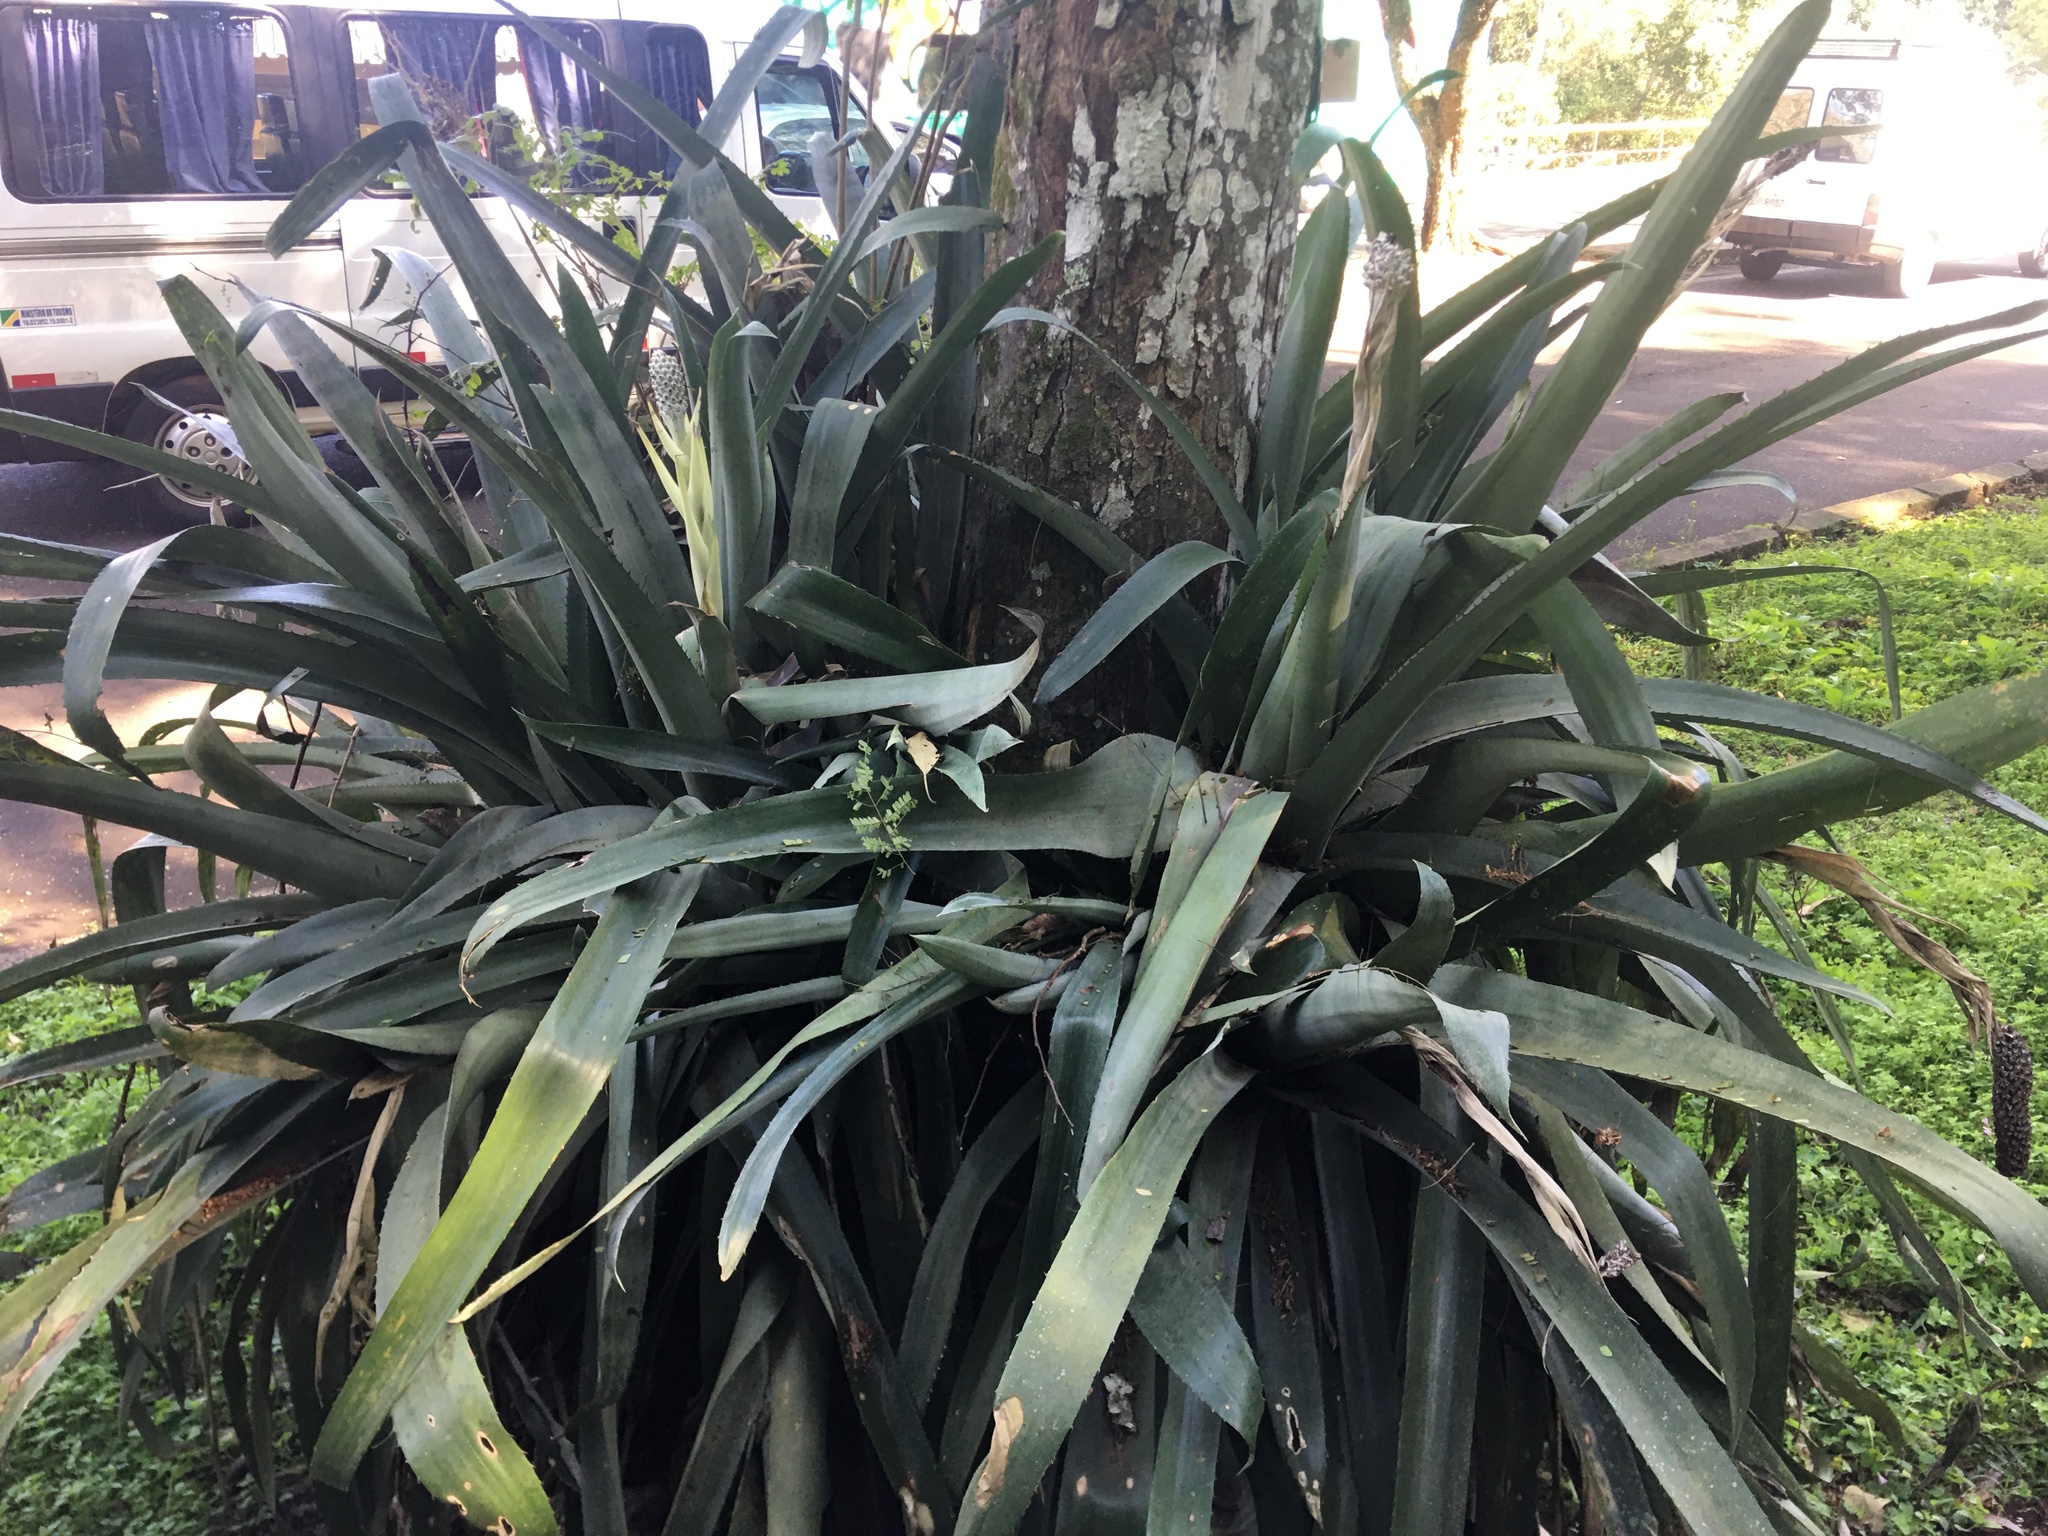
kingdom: Plantae
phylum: Tracheophyta
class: Liliopsida
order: Poales
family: Bromeliaceae
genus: Aechmea
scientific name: Aechmea bromeliifolia
